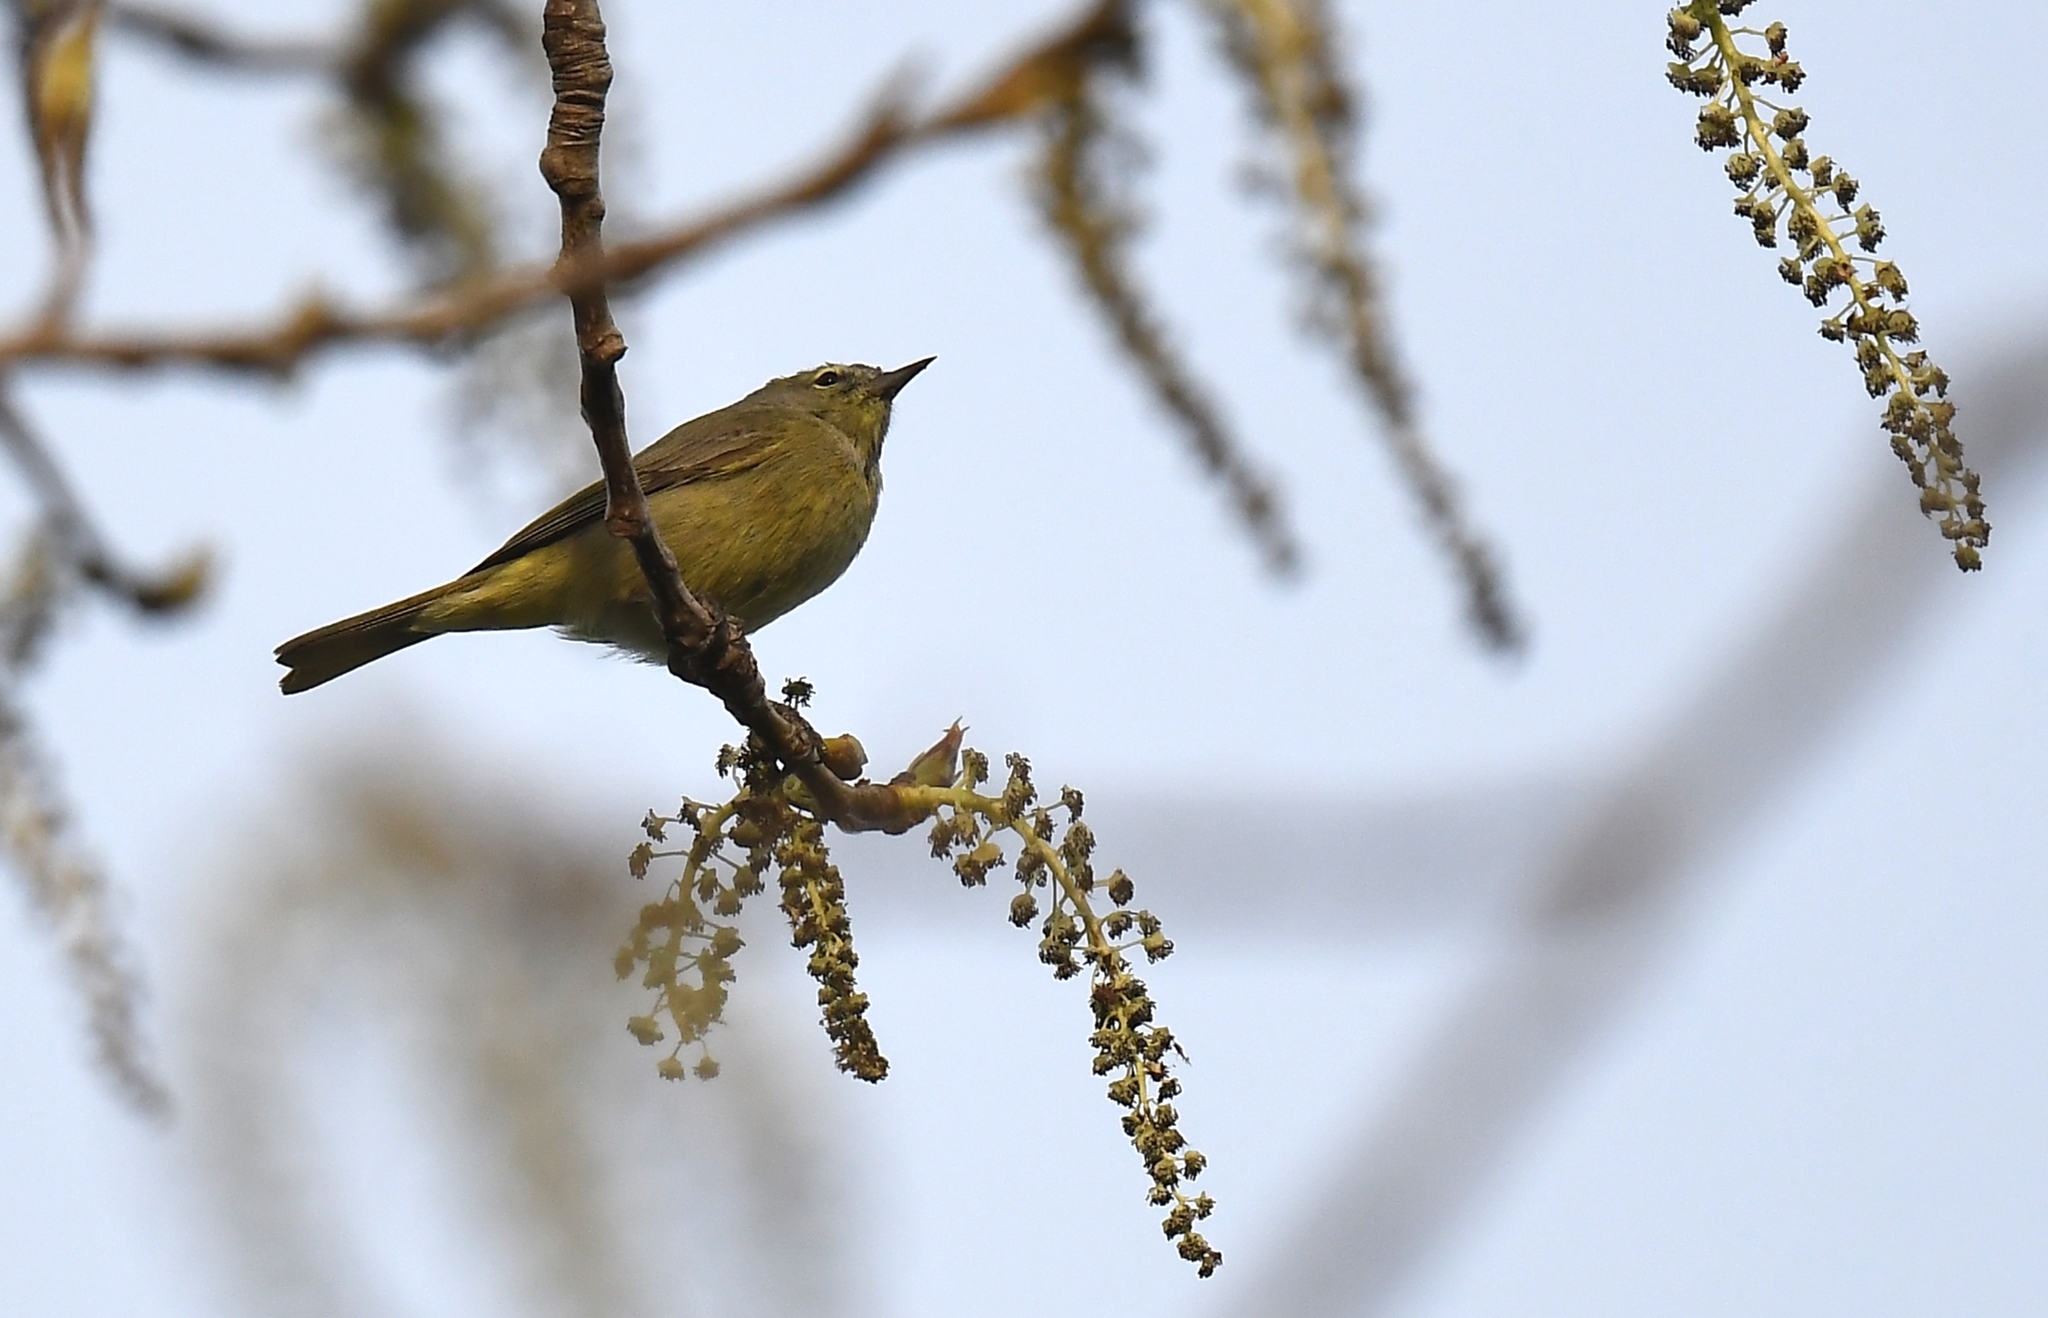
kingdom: Animalia
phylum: Chordata
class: Aves
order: Passeriformes
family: Parulidae
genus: Leiothlypis
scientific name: Leiothlypis celata
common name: Orange-crowned warbler
